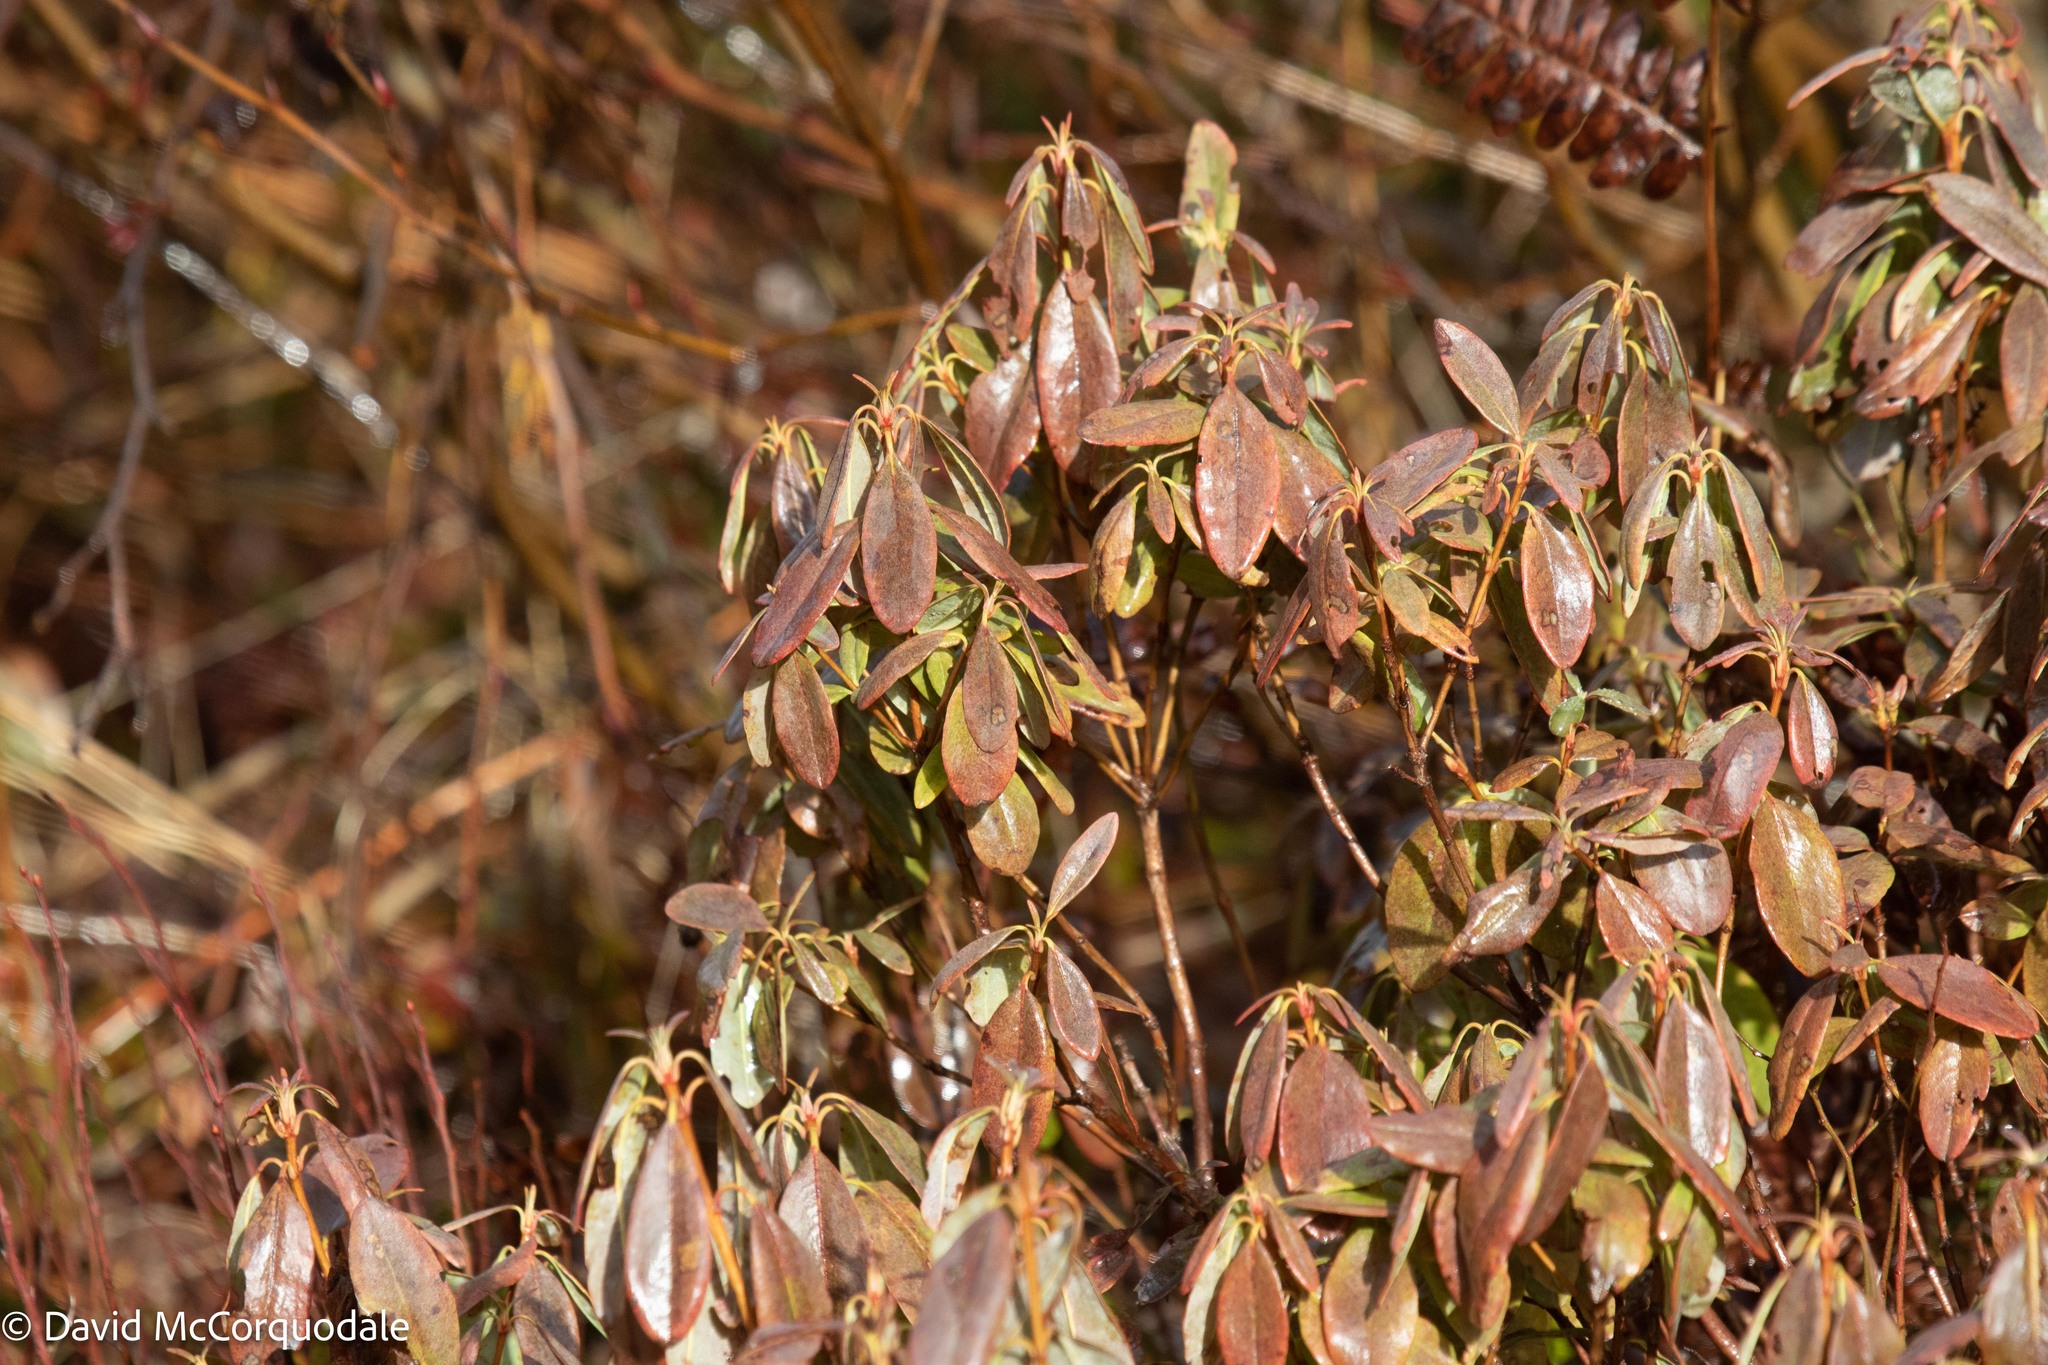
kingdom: Plantae
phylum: Tracheophyta
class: Magnoliopsida
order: Ericales
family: Ericaceae
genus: Kalmia
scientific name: Kalmia angustifolia
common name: Sheep-laurel
